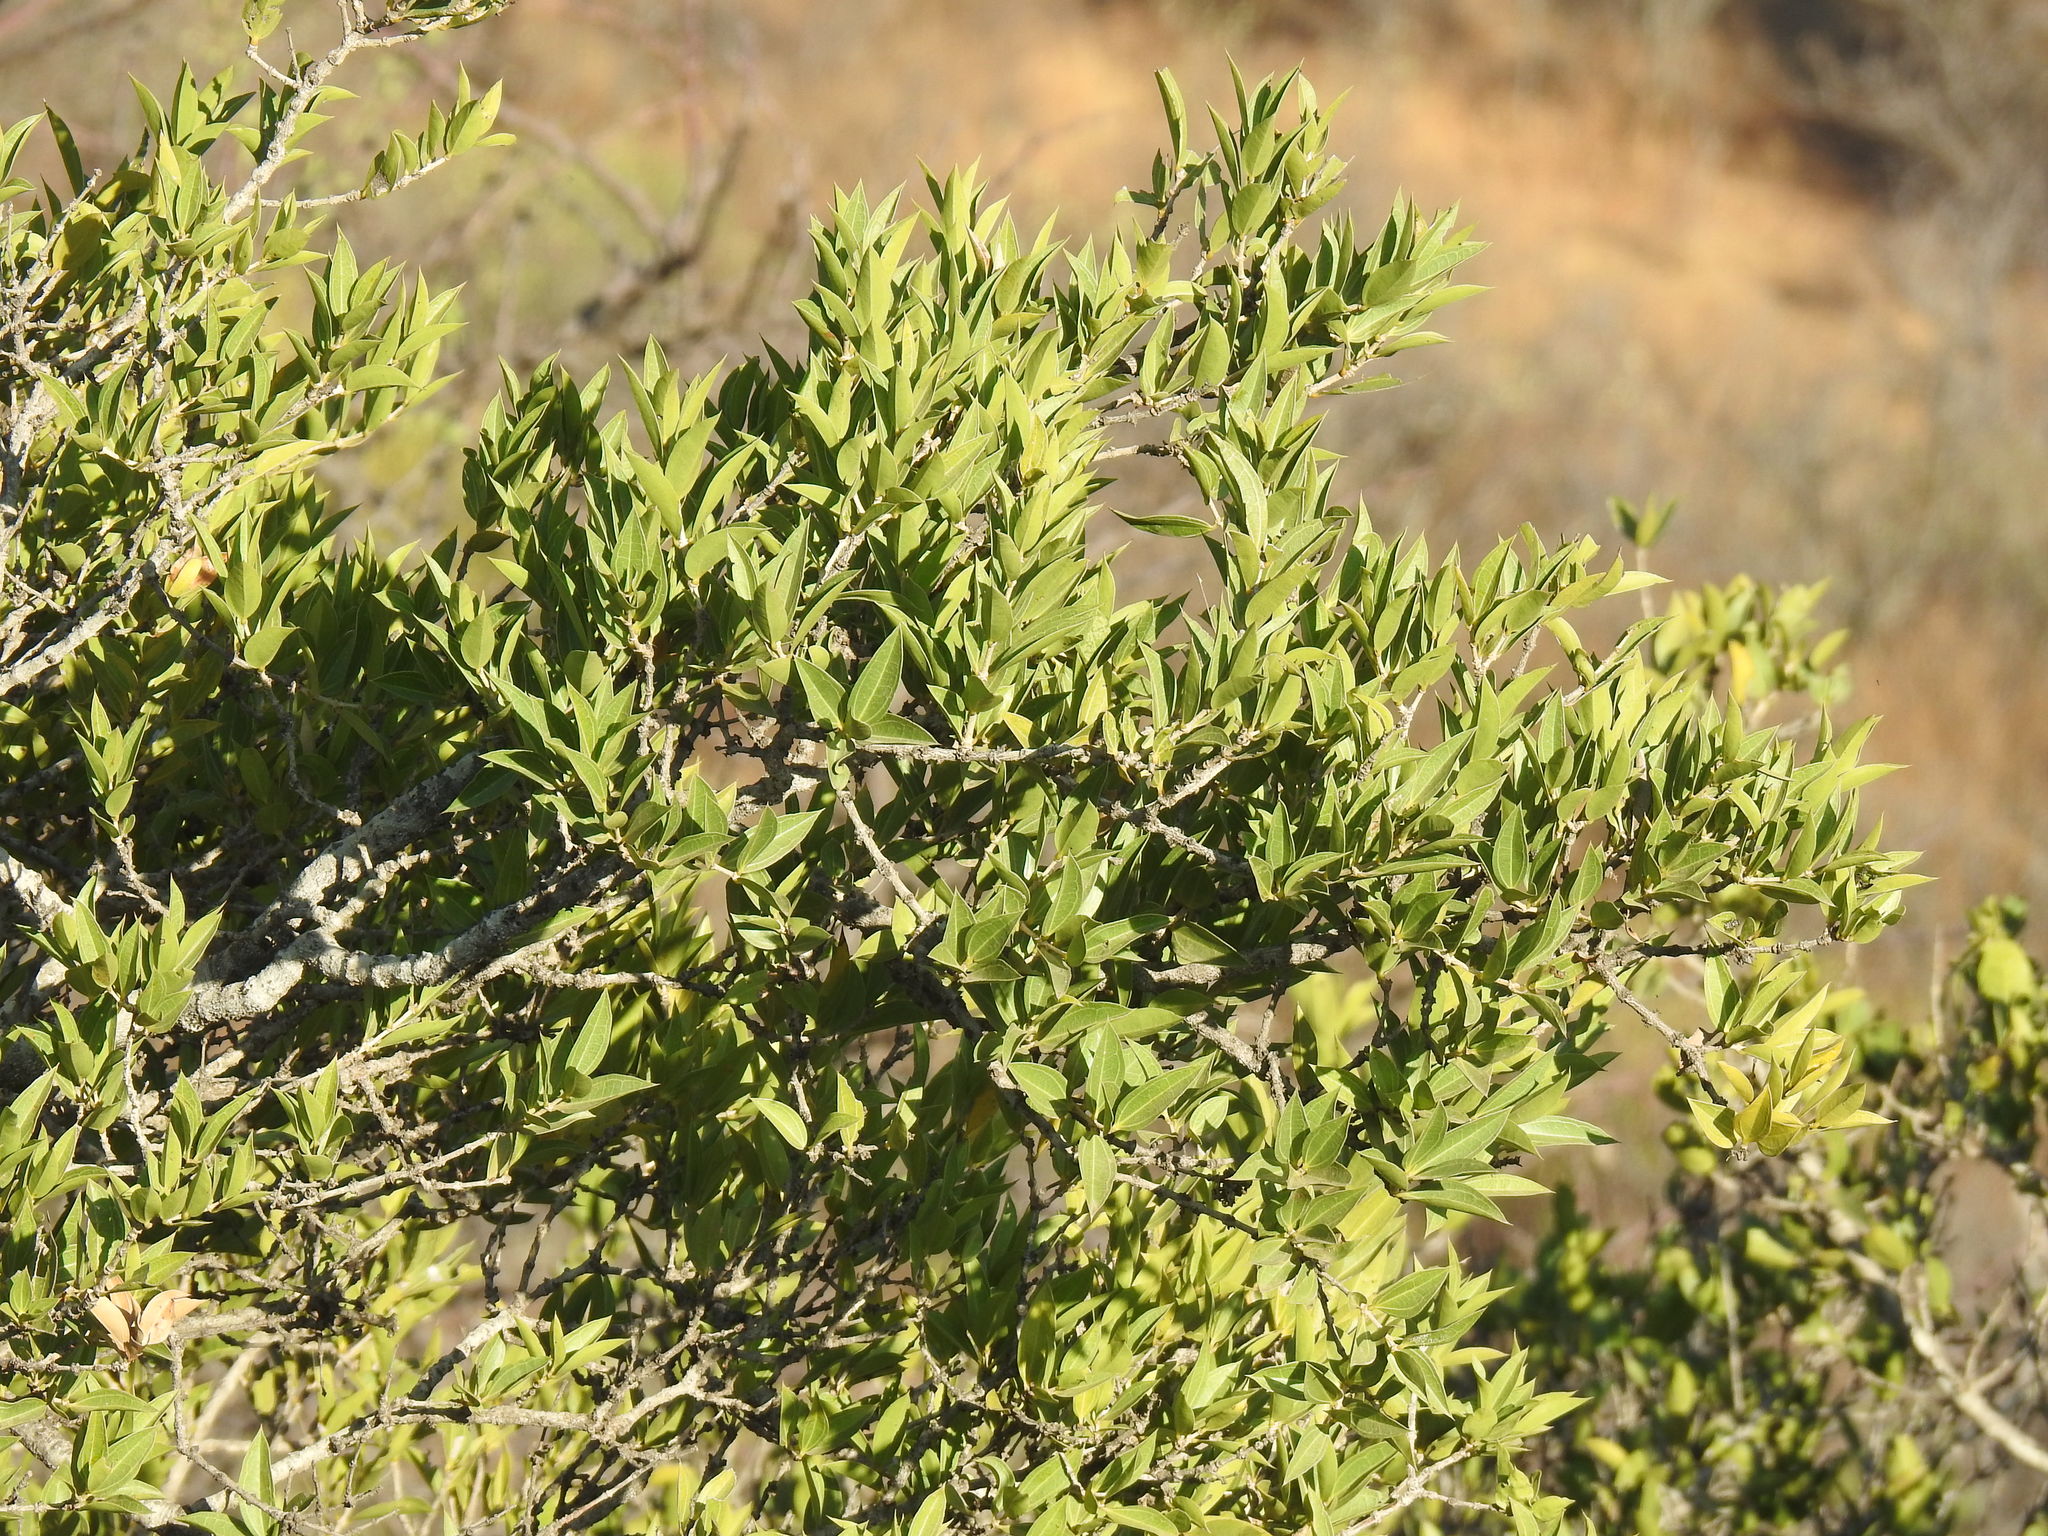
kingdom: Plantae
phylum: Tracheophyta
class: Magnoliopsida
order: Gentianales
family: Loganiaceae
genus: Strychnos
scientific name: Strychnos pungens
